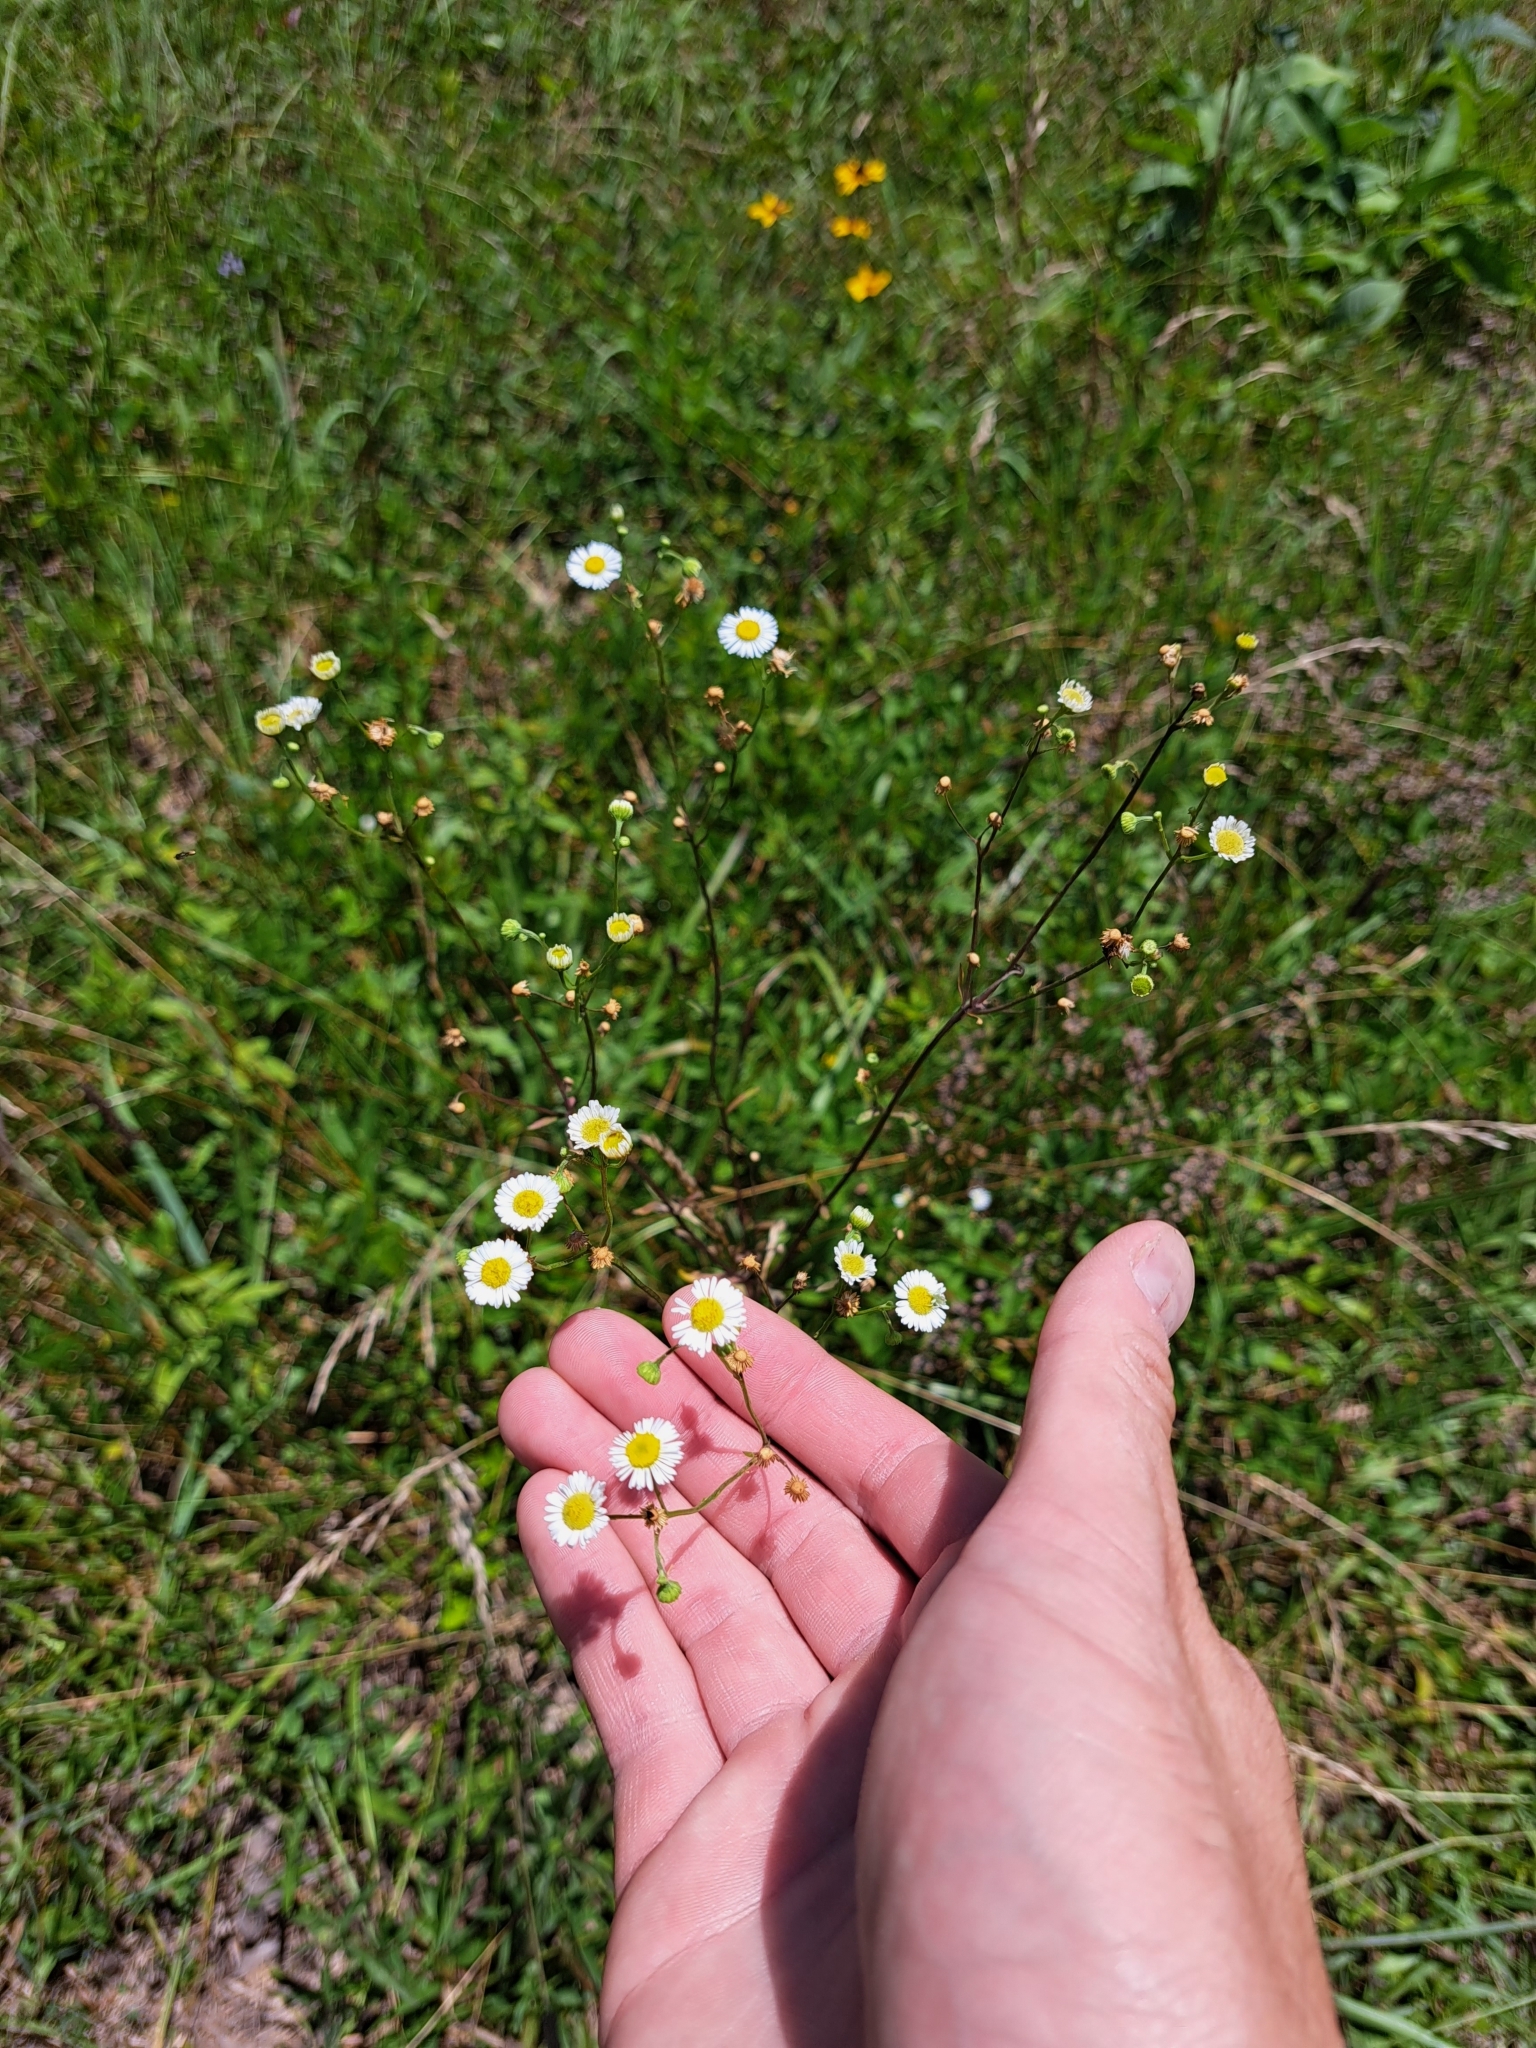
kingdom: Plantae
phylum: Tracheophyta
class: Magnoliopsida
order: Asterales
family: Asteraceae
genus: Erigeron
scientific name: Erigeron strigosus
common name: Common eastern fleabane
